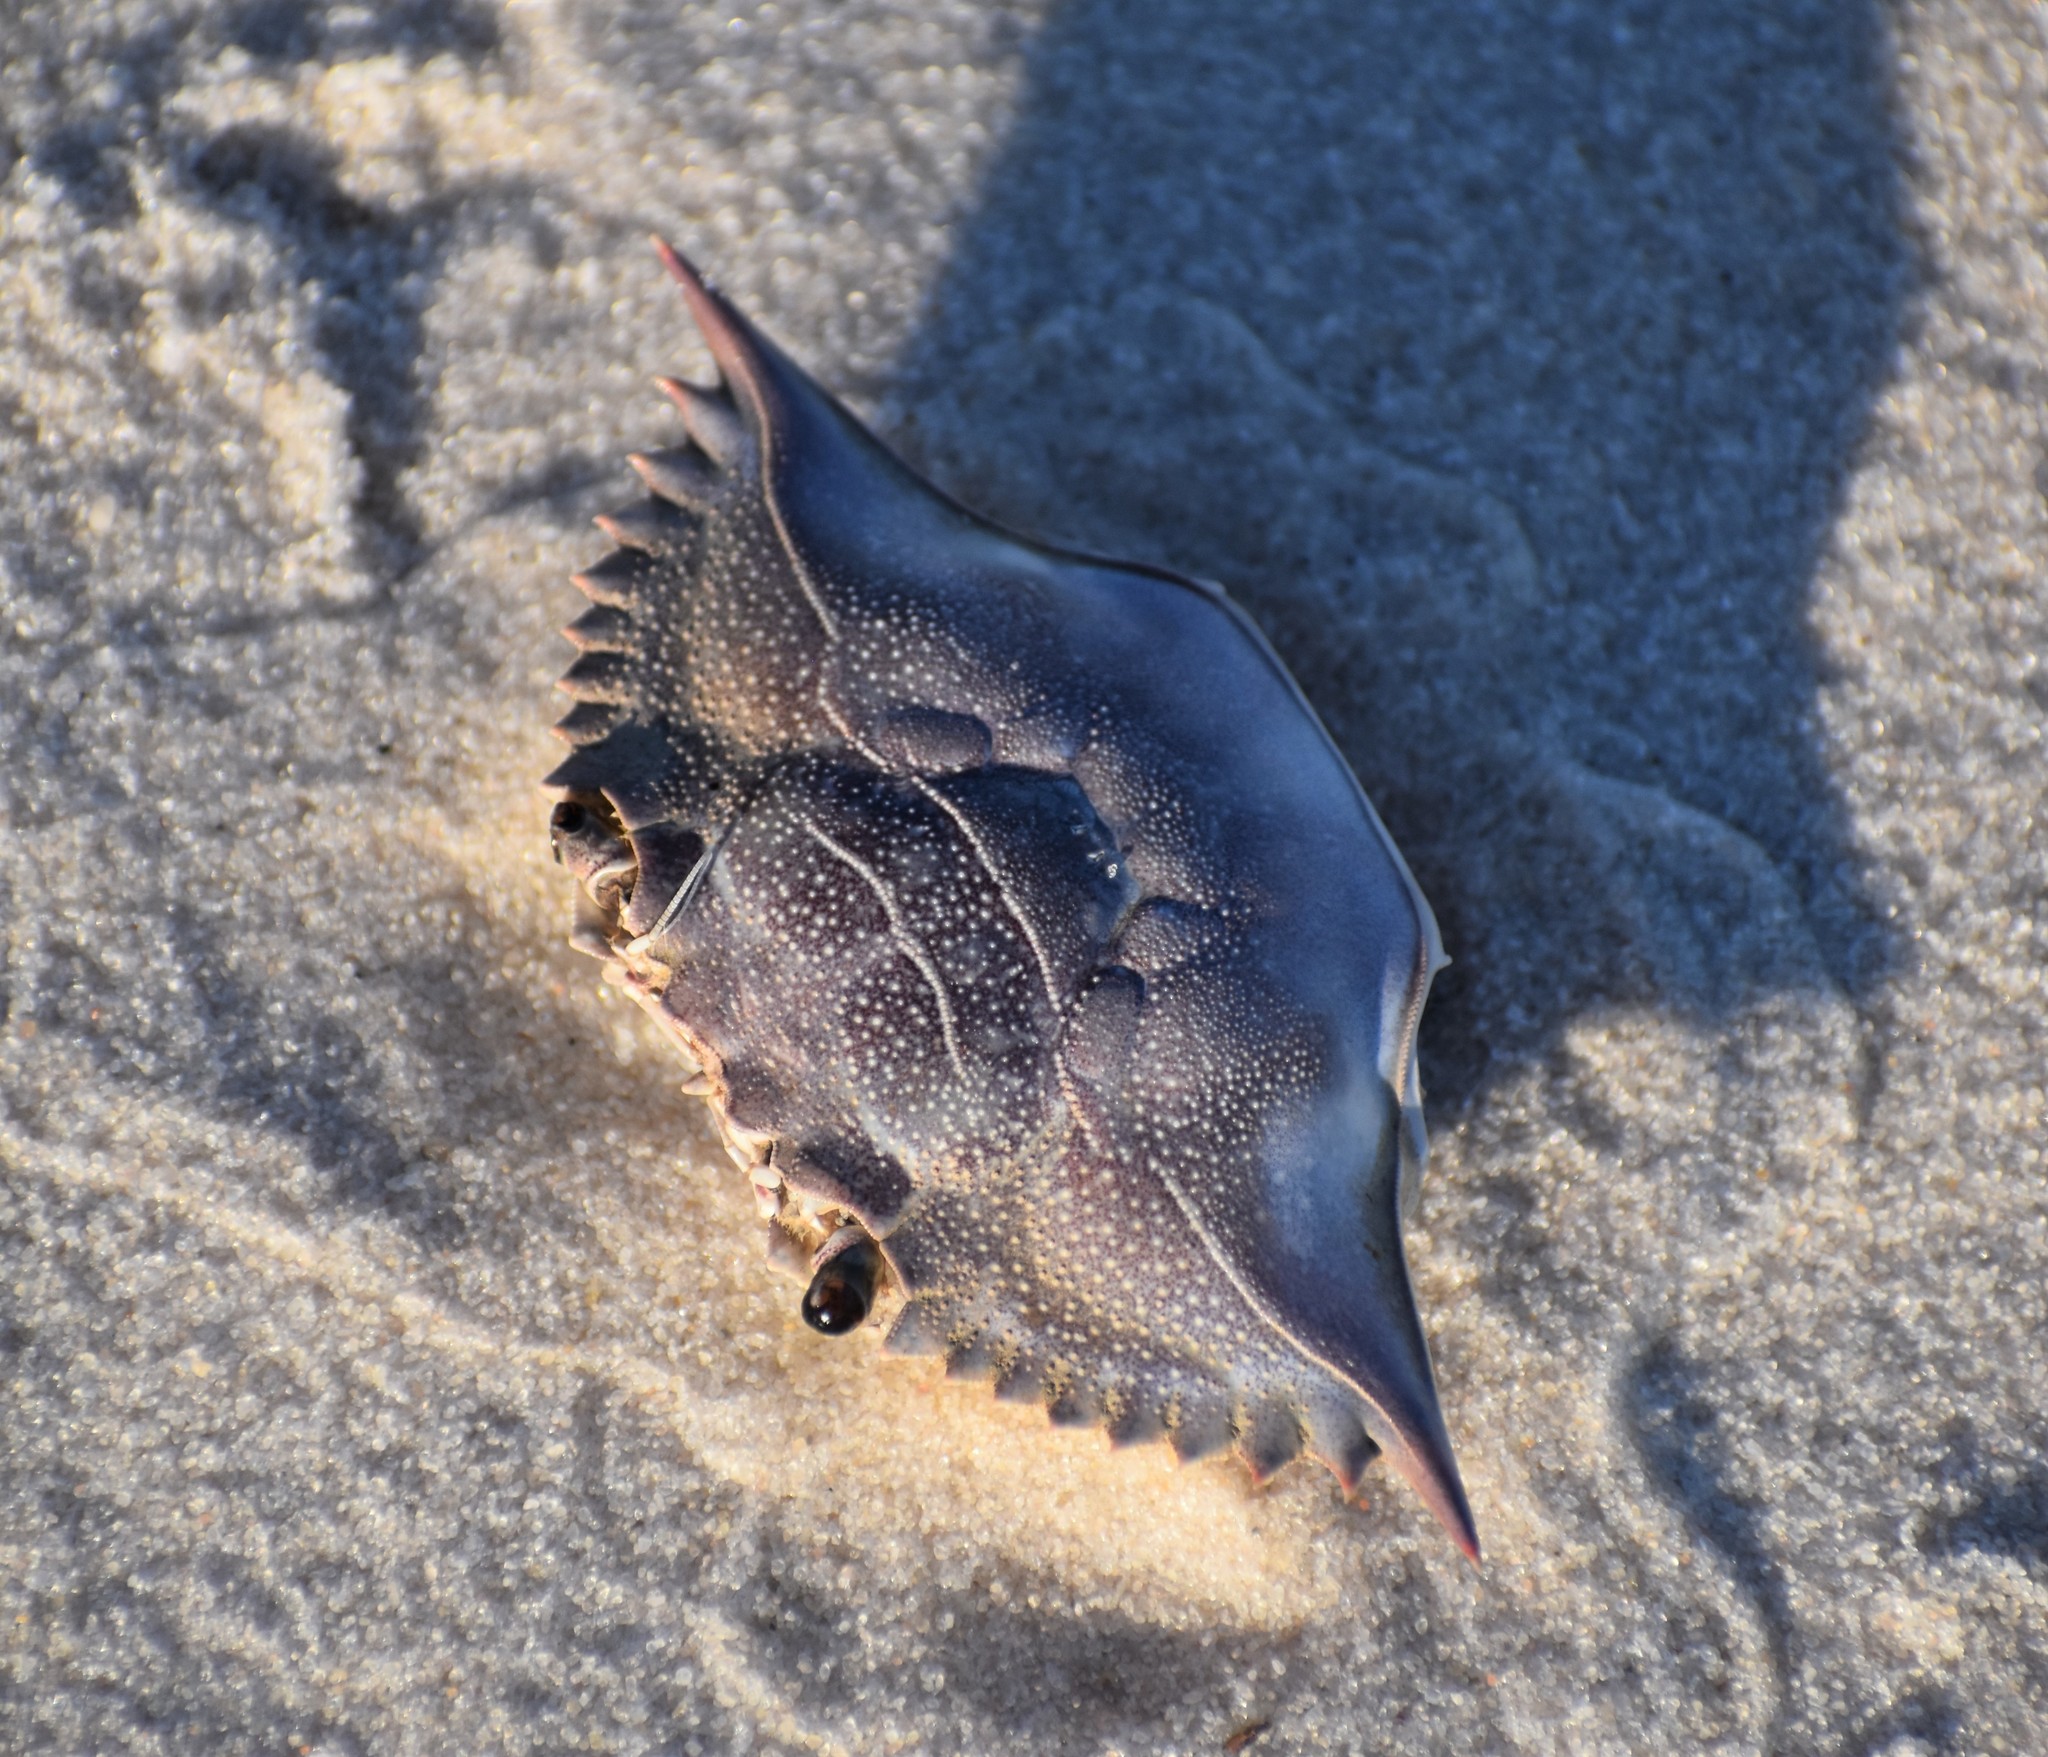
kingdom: Animalia
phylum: Arthropoda
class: Malacostraca
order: Decapoda
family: Portunidae
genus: Callinectes
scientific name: Callinectes sapidus
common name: Blue crab
